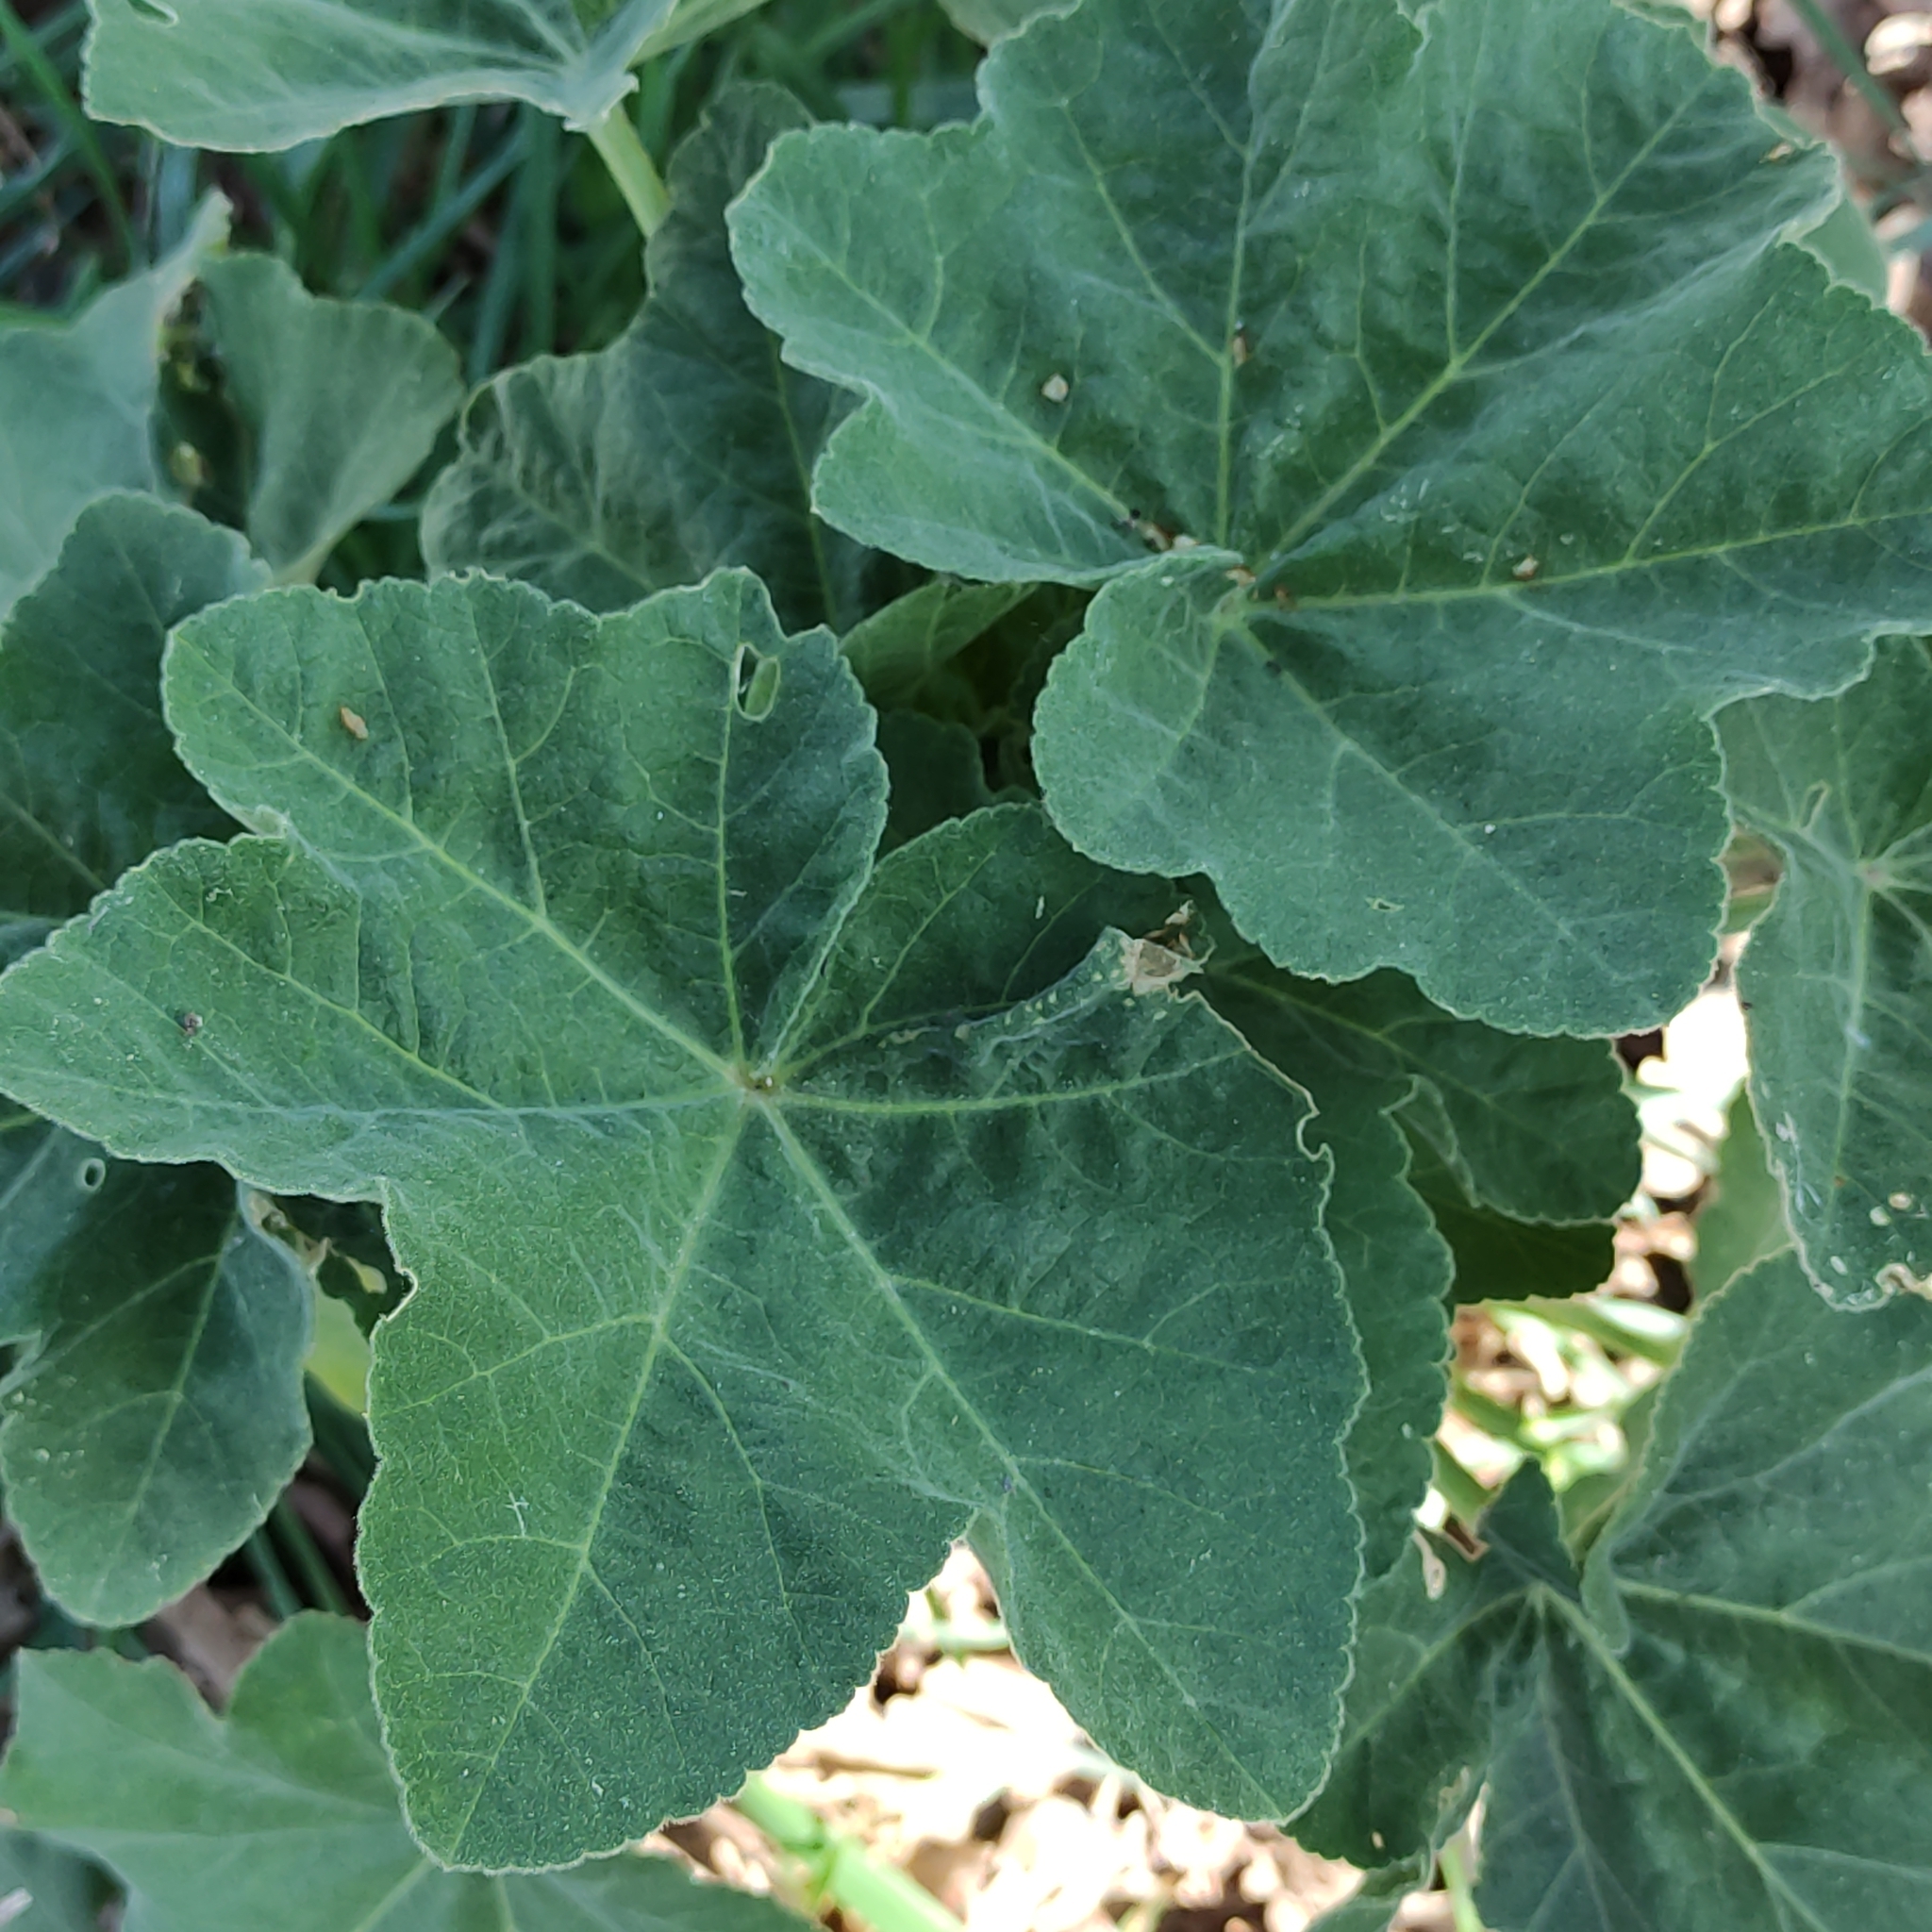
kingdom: Plantae
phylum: Tracheophyta
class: Magnoliopsida
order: Malvales
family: Malvaceae
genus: Malva
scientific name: Malva arborea
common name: Tree mallow
